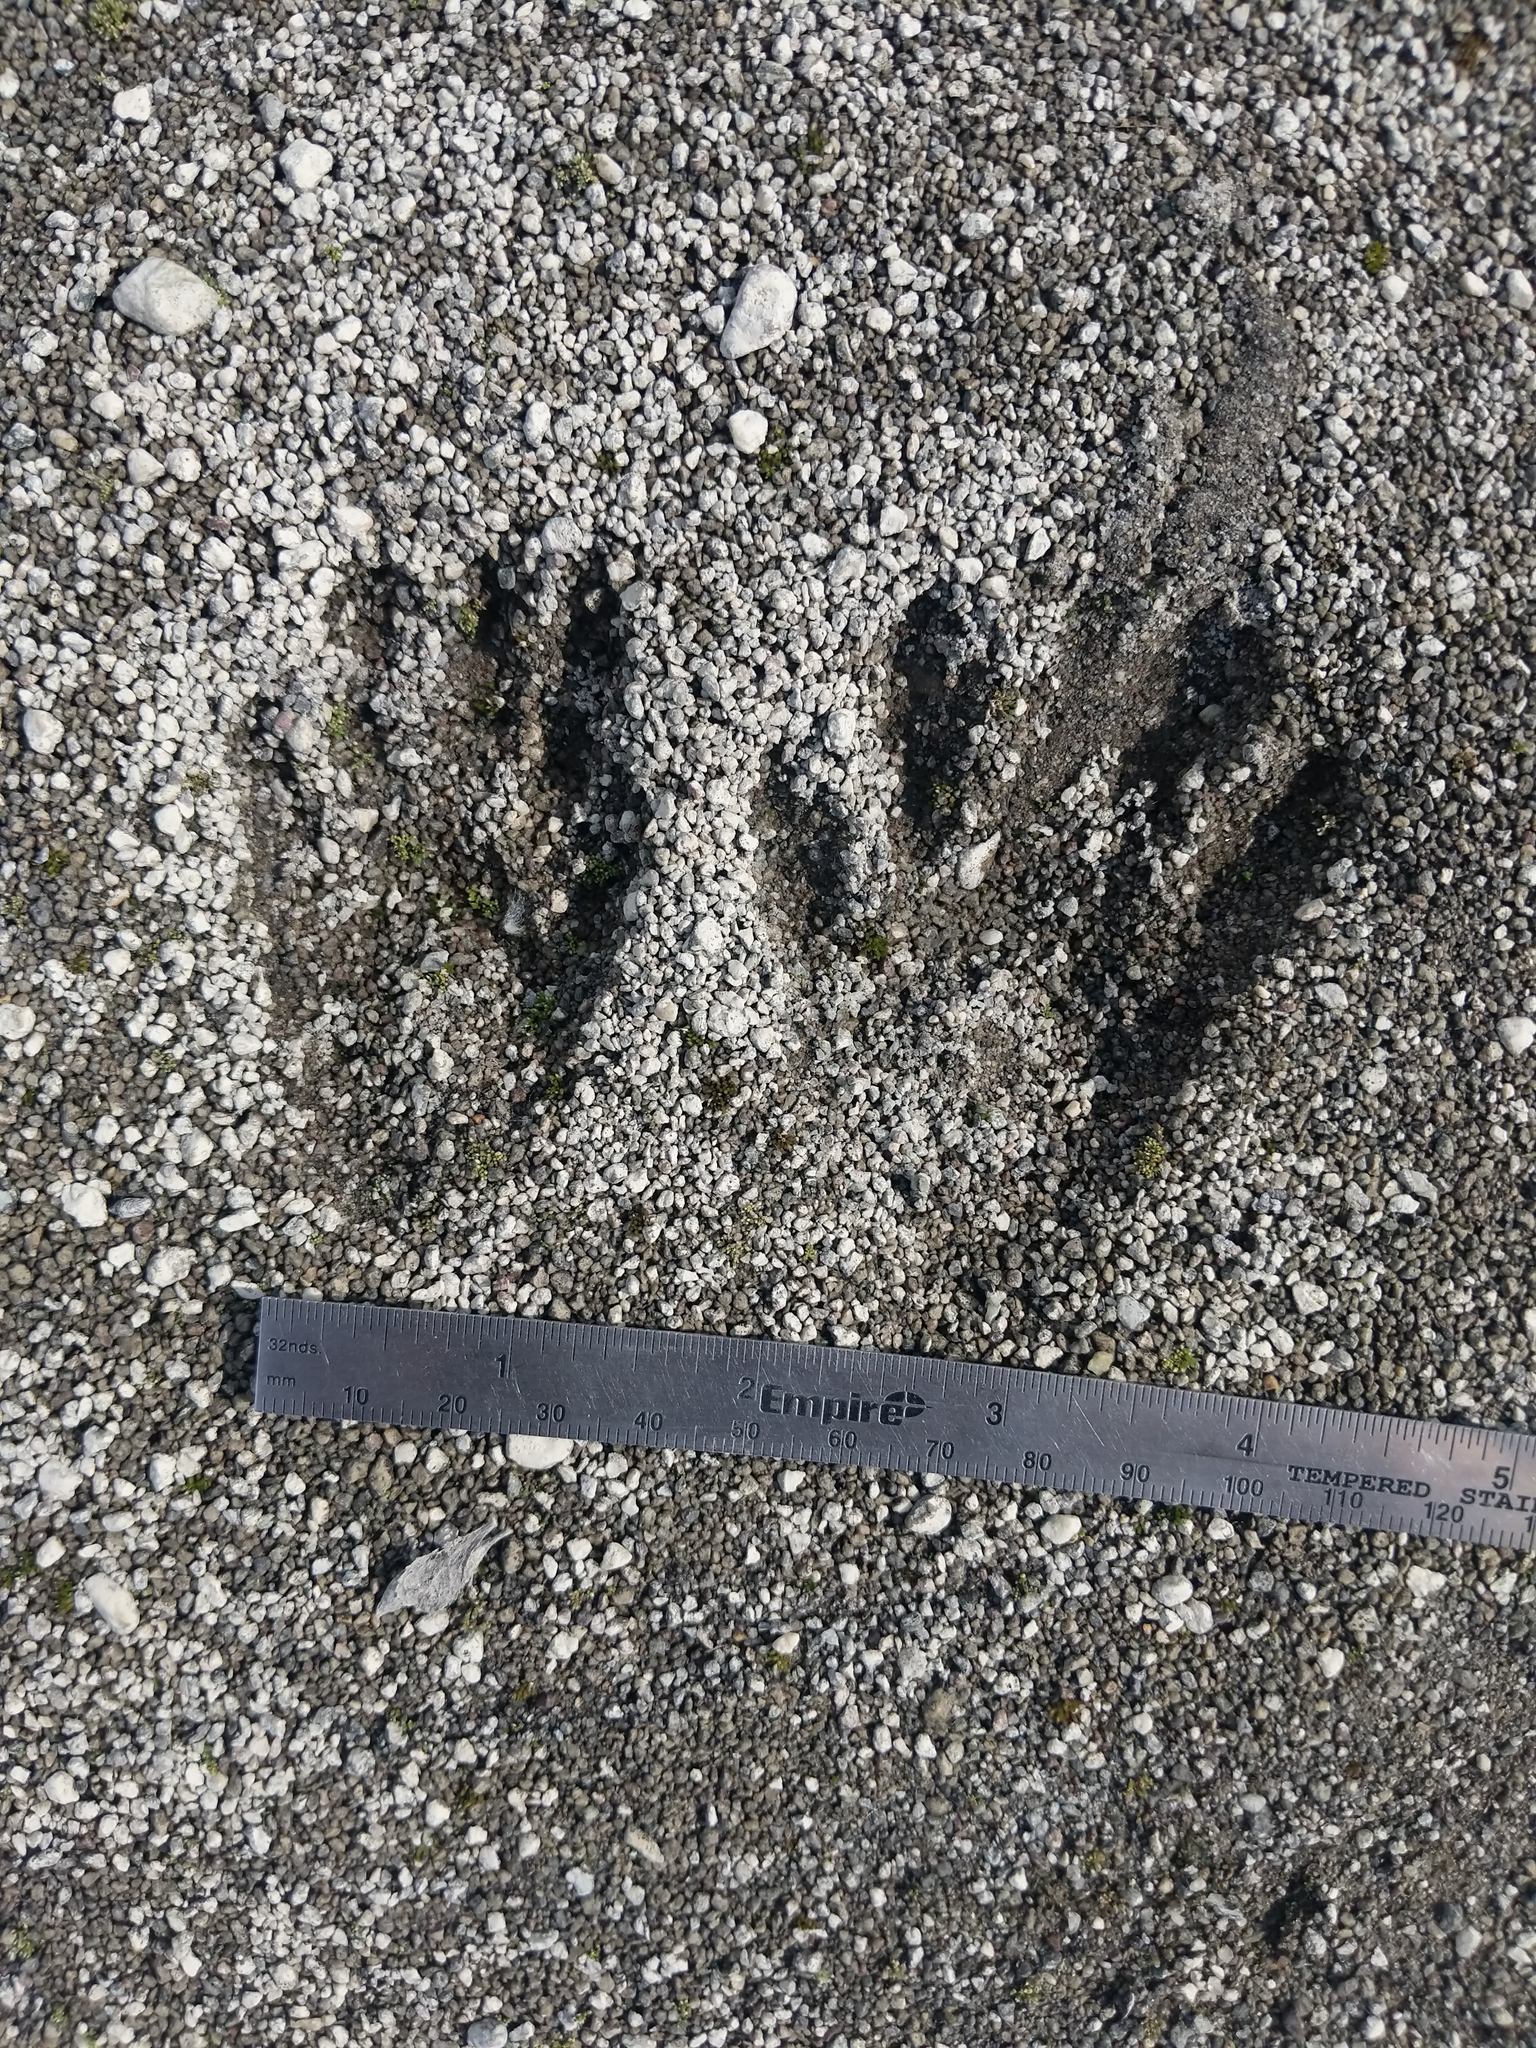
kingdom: Animalia
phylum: Chordata
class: Mammalia
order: Carnivora
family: Procyonidae
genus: Procyon
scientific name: Procyon lotor
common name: Raccoon
